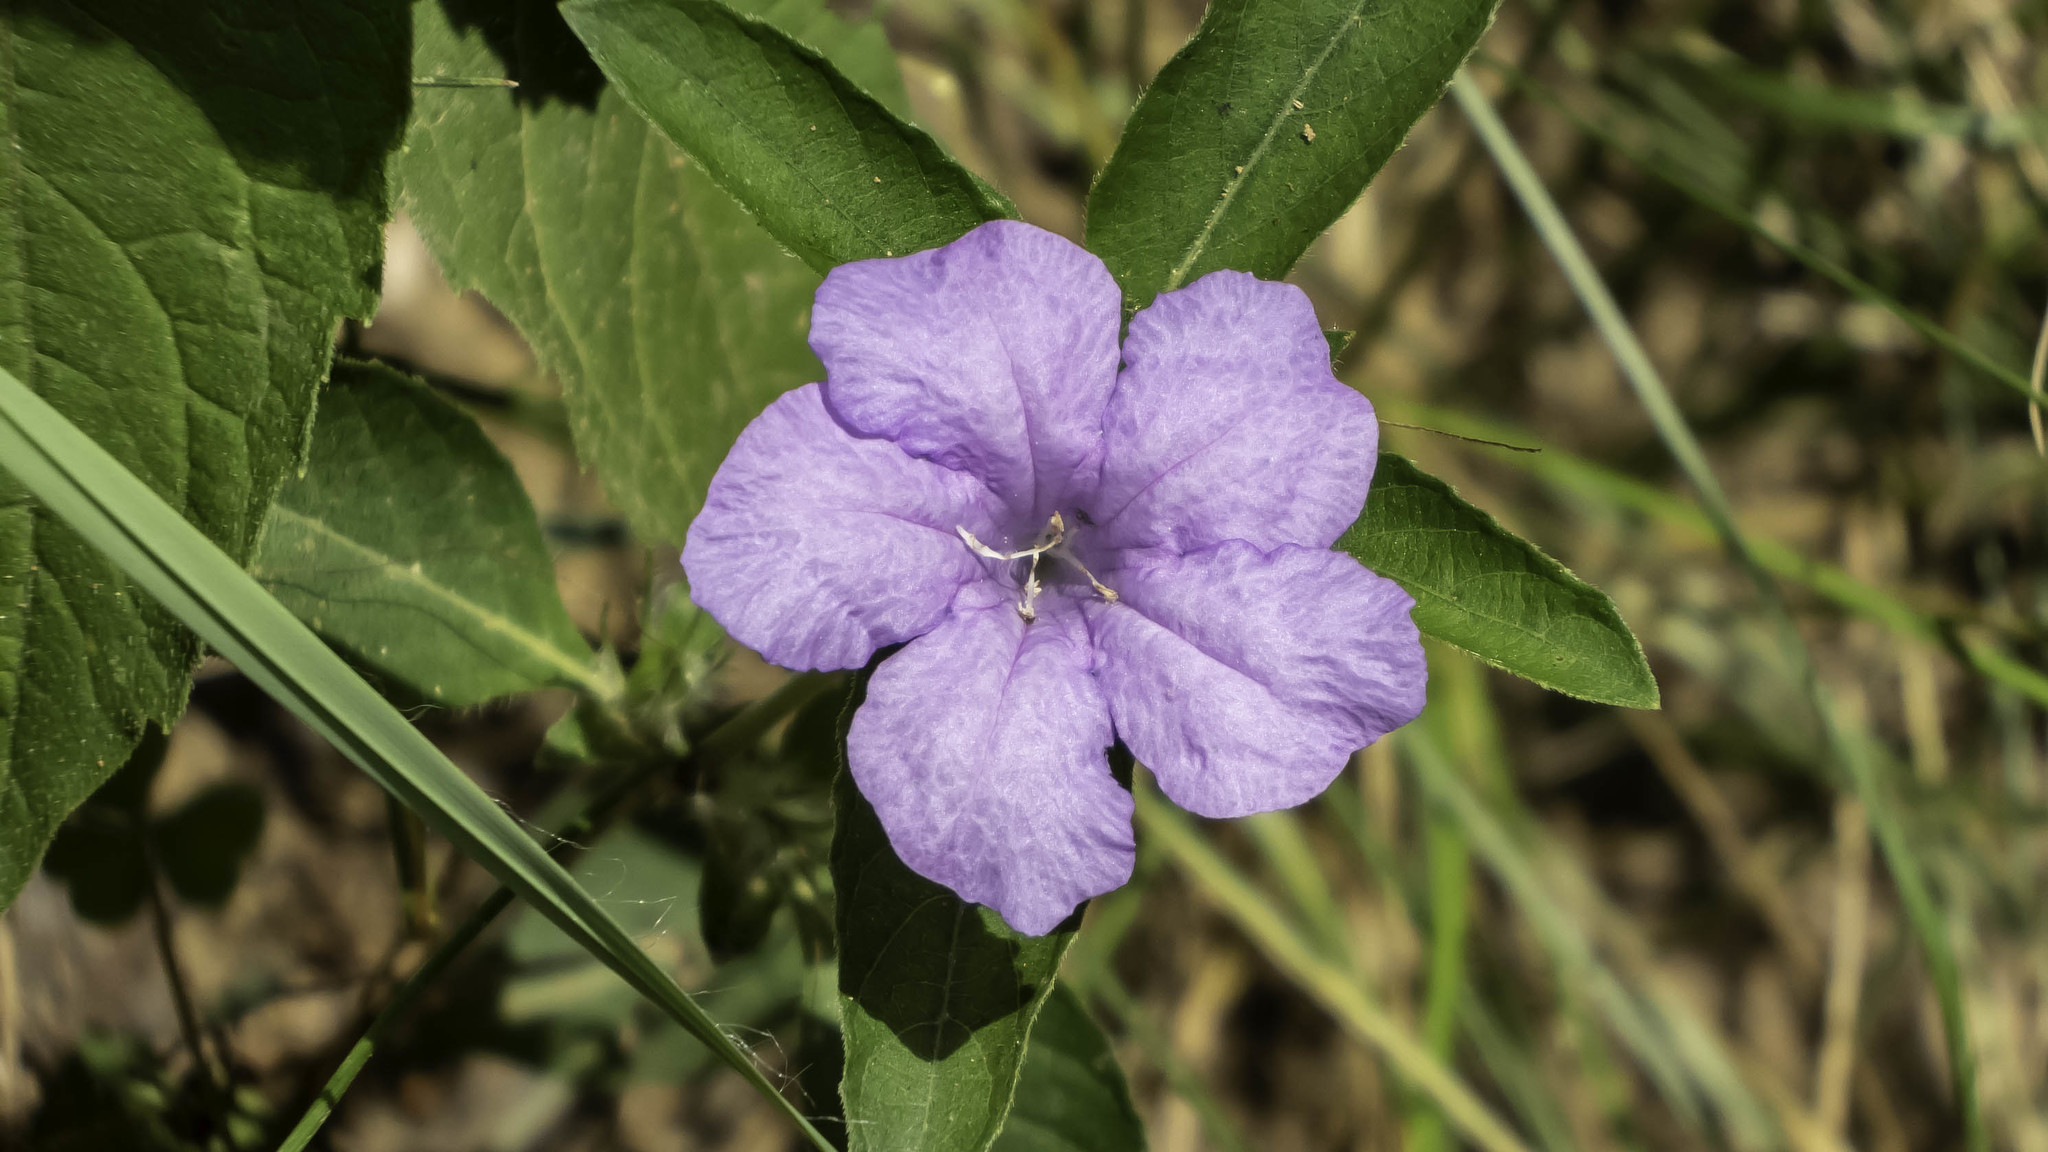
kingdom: Plantae
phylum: Tracheophyta
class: Magnoliopsida
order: Lamiales
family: Acanthaceae
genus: Ruellia
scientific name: Ruellia caroliniensis
